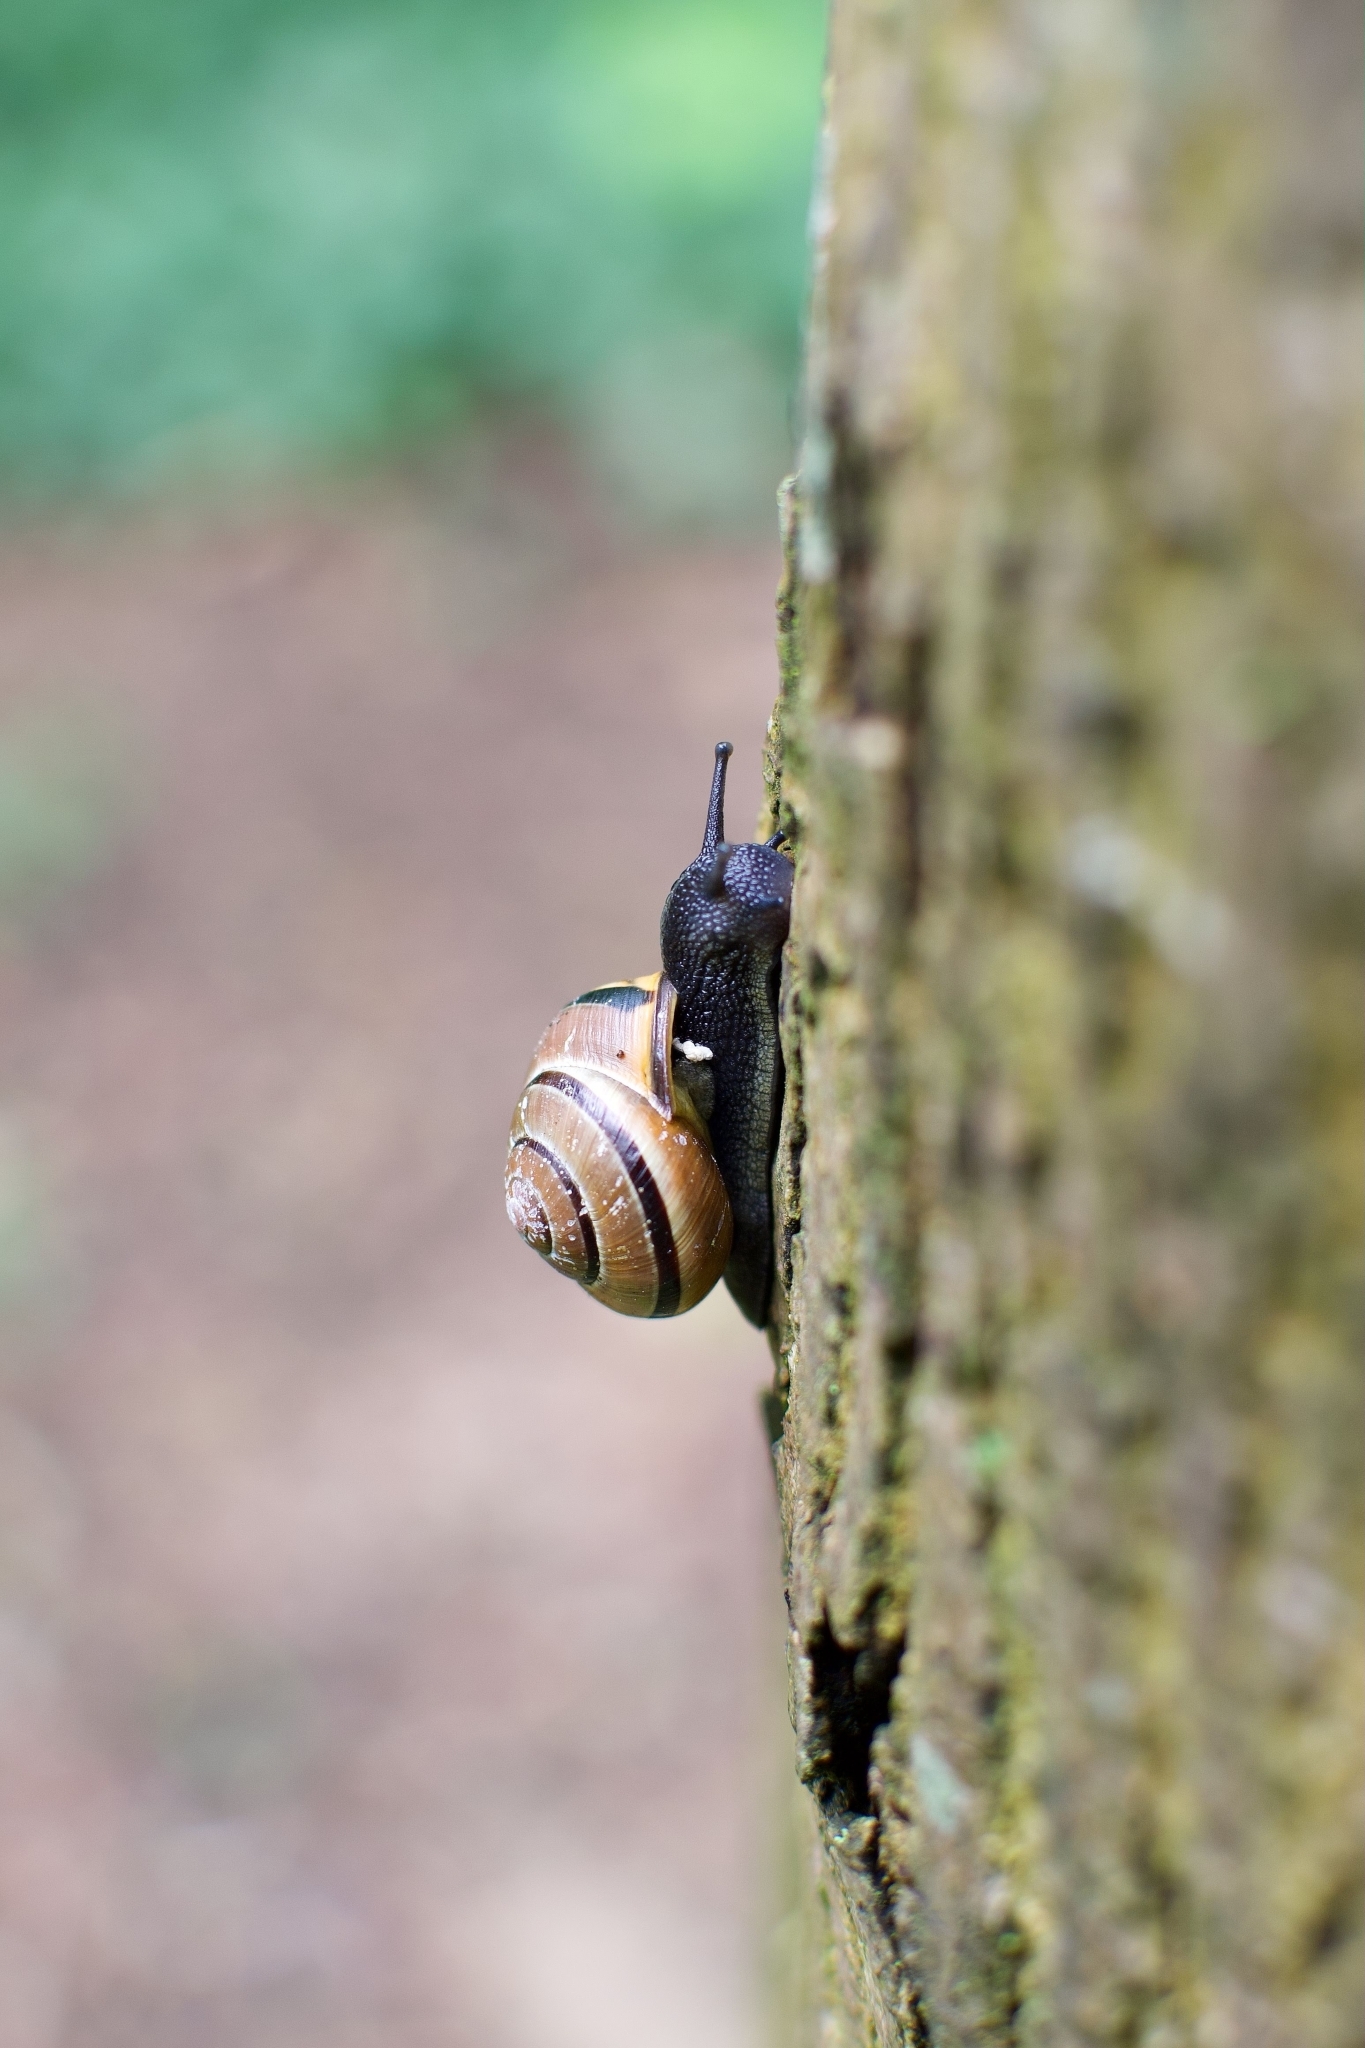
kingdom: Animalia
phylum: Mollusca
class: Gastropoda
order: Stylommatophora
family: Helicidae
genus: Cepaea
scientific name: Cepaea nemoralis
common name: Grovesnail
